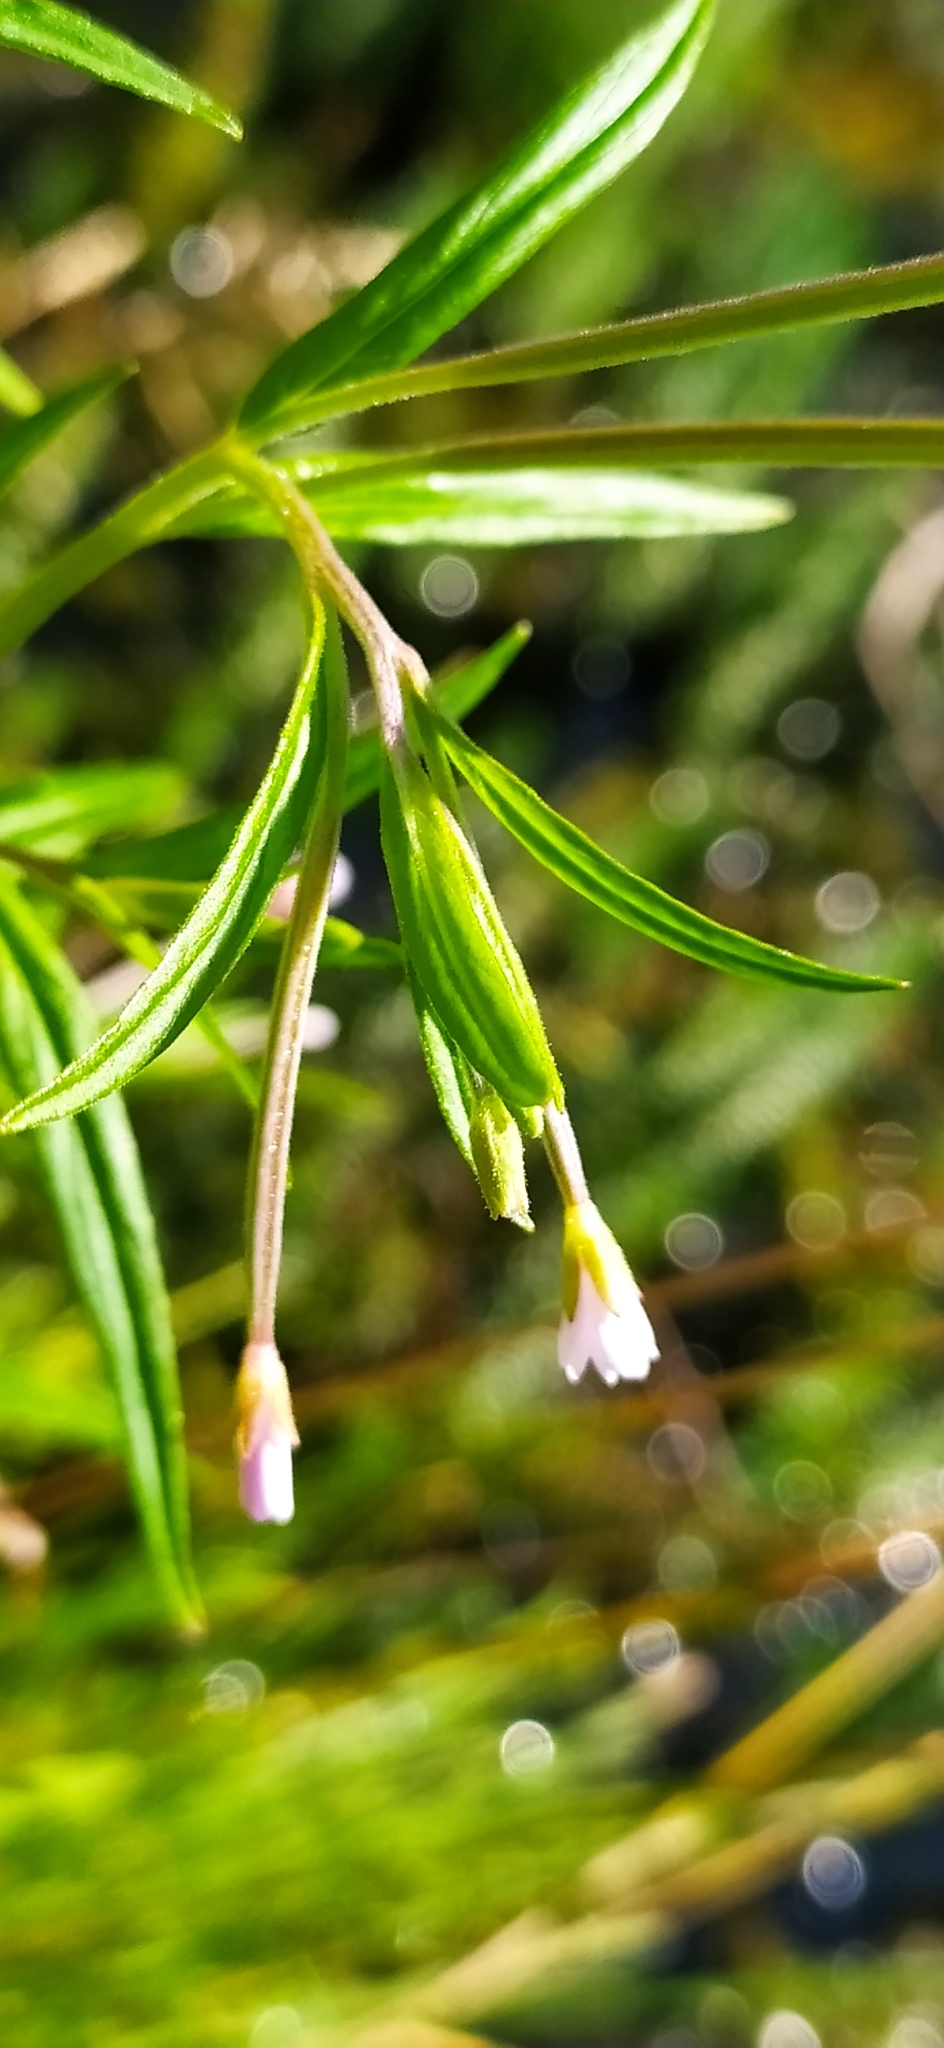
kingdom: Plantae
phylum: Tracheophyta
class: Magnoliopsida
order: Myrtales
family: Onagraceae
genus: Epilobium
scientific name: Epilobium palustre
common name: Marsh willowherb
